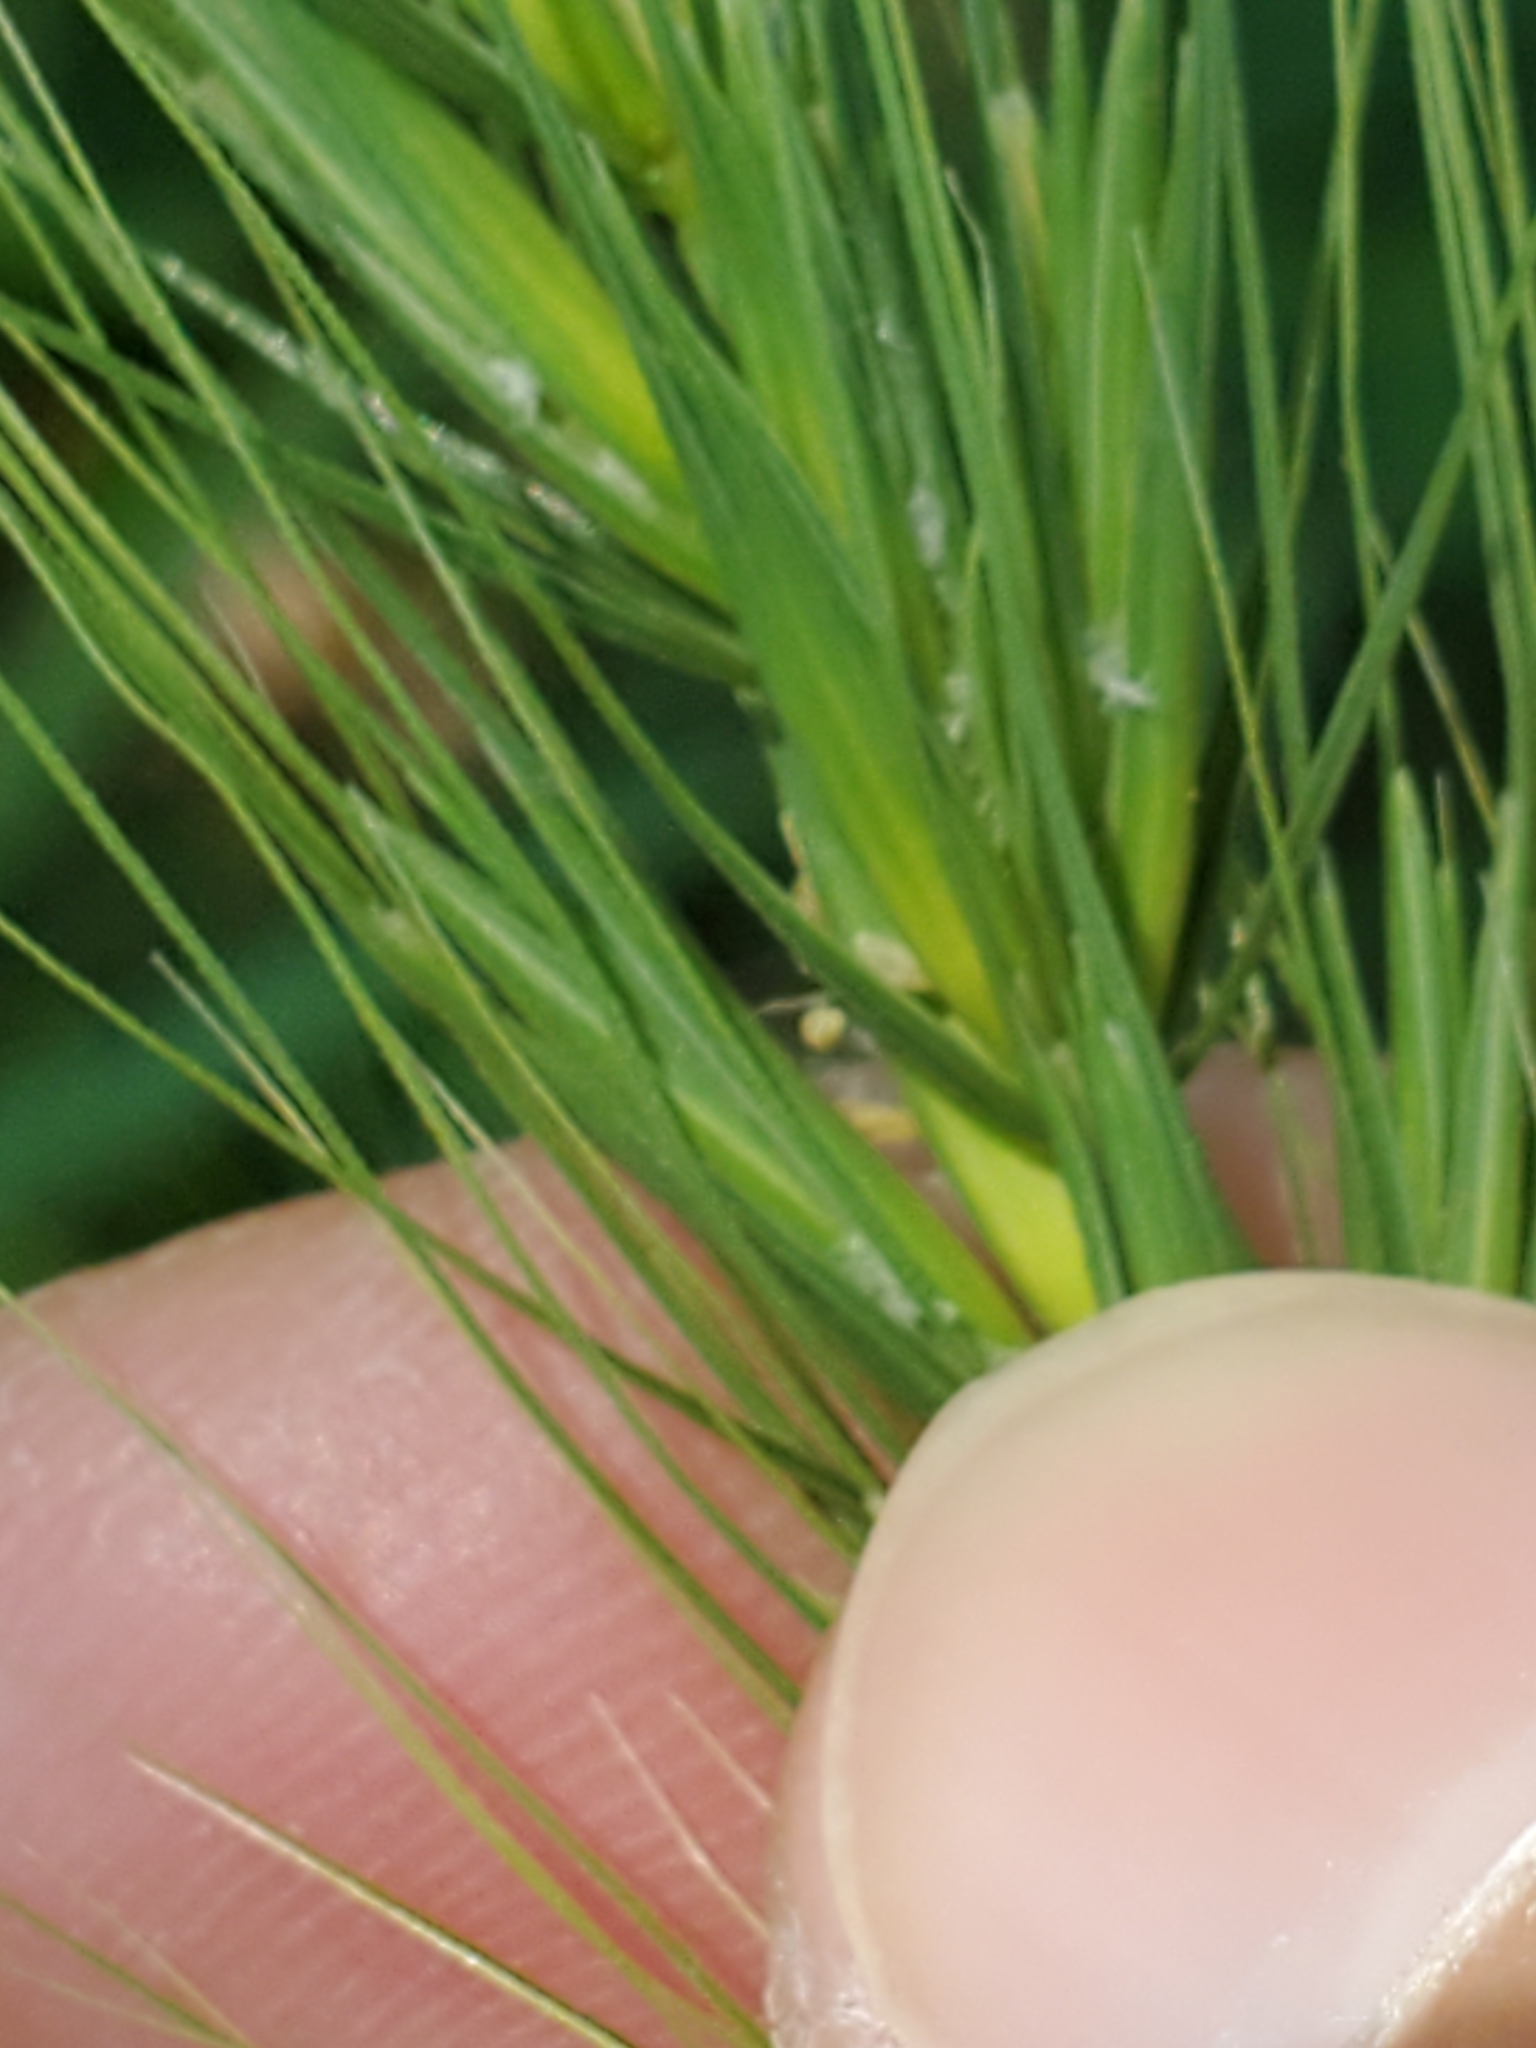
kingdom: Plantae
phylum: Tracheophyta
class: Liliopsida
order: Poales
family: Poaceae
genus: Elymus
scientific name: Elymus canadensis
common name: Canada wild rye
